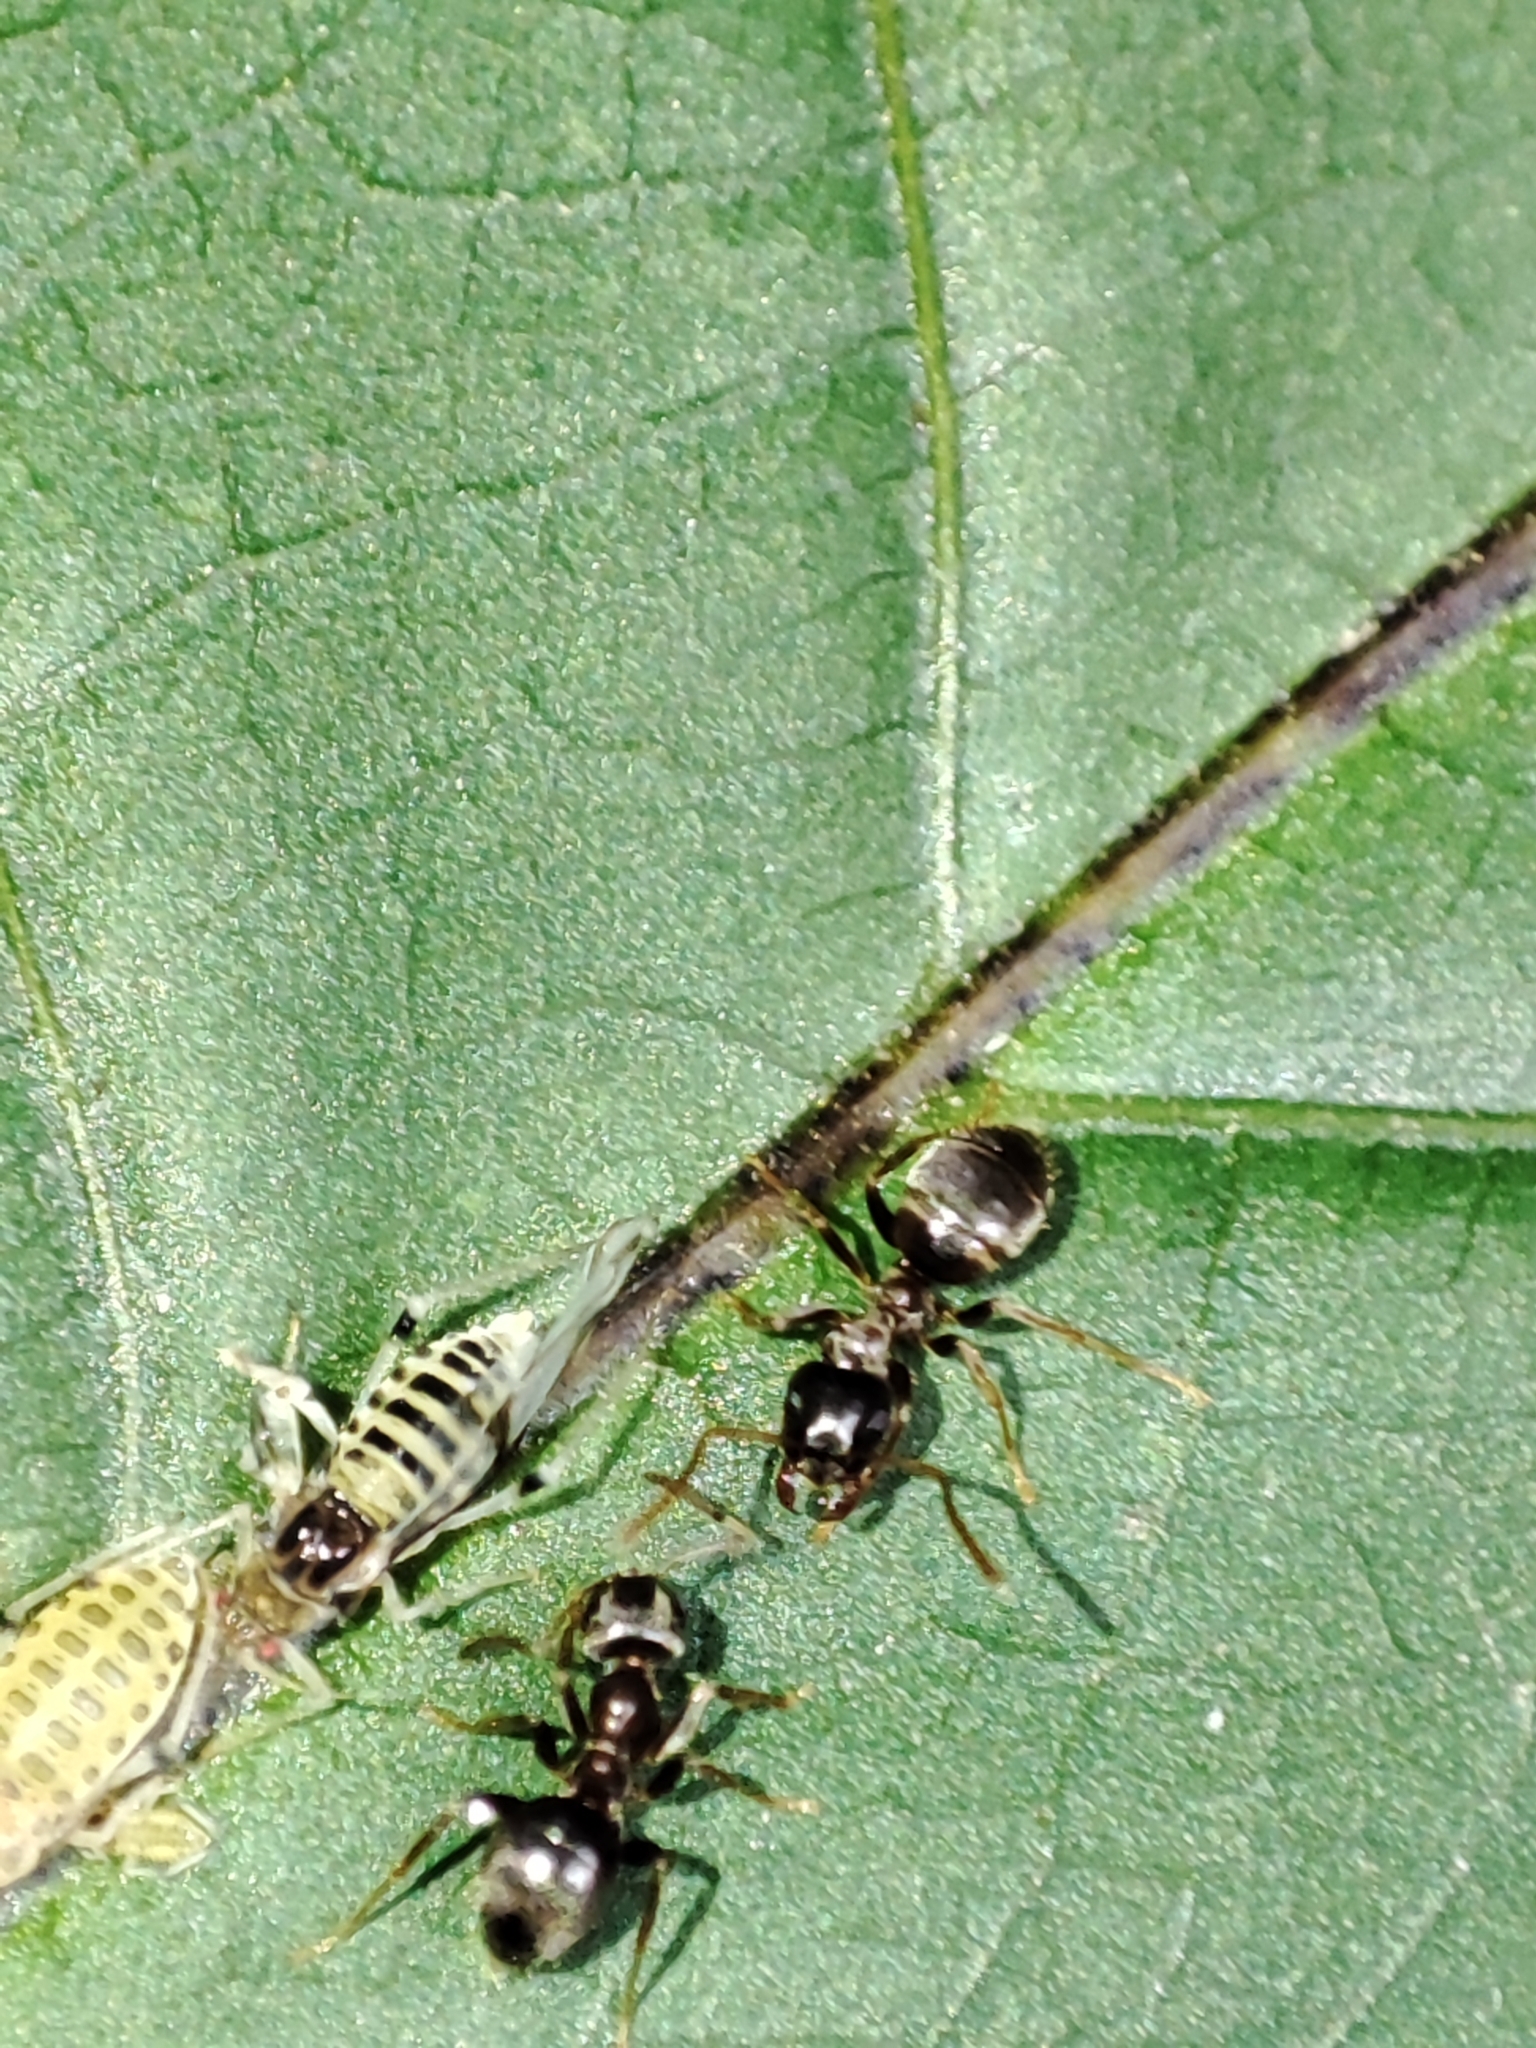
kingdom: Animalia
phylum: Arthropoda
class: Insecta
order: Hemiptera
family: Aphididae
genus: Panaphis
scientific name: Panaphis juglandis
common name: Large walnut aphid
